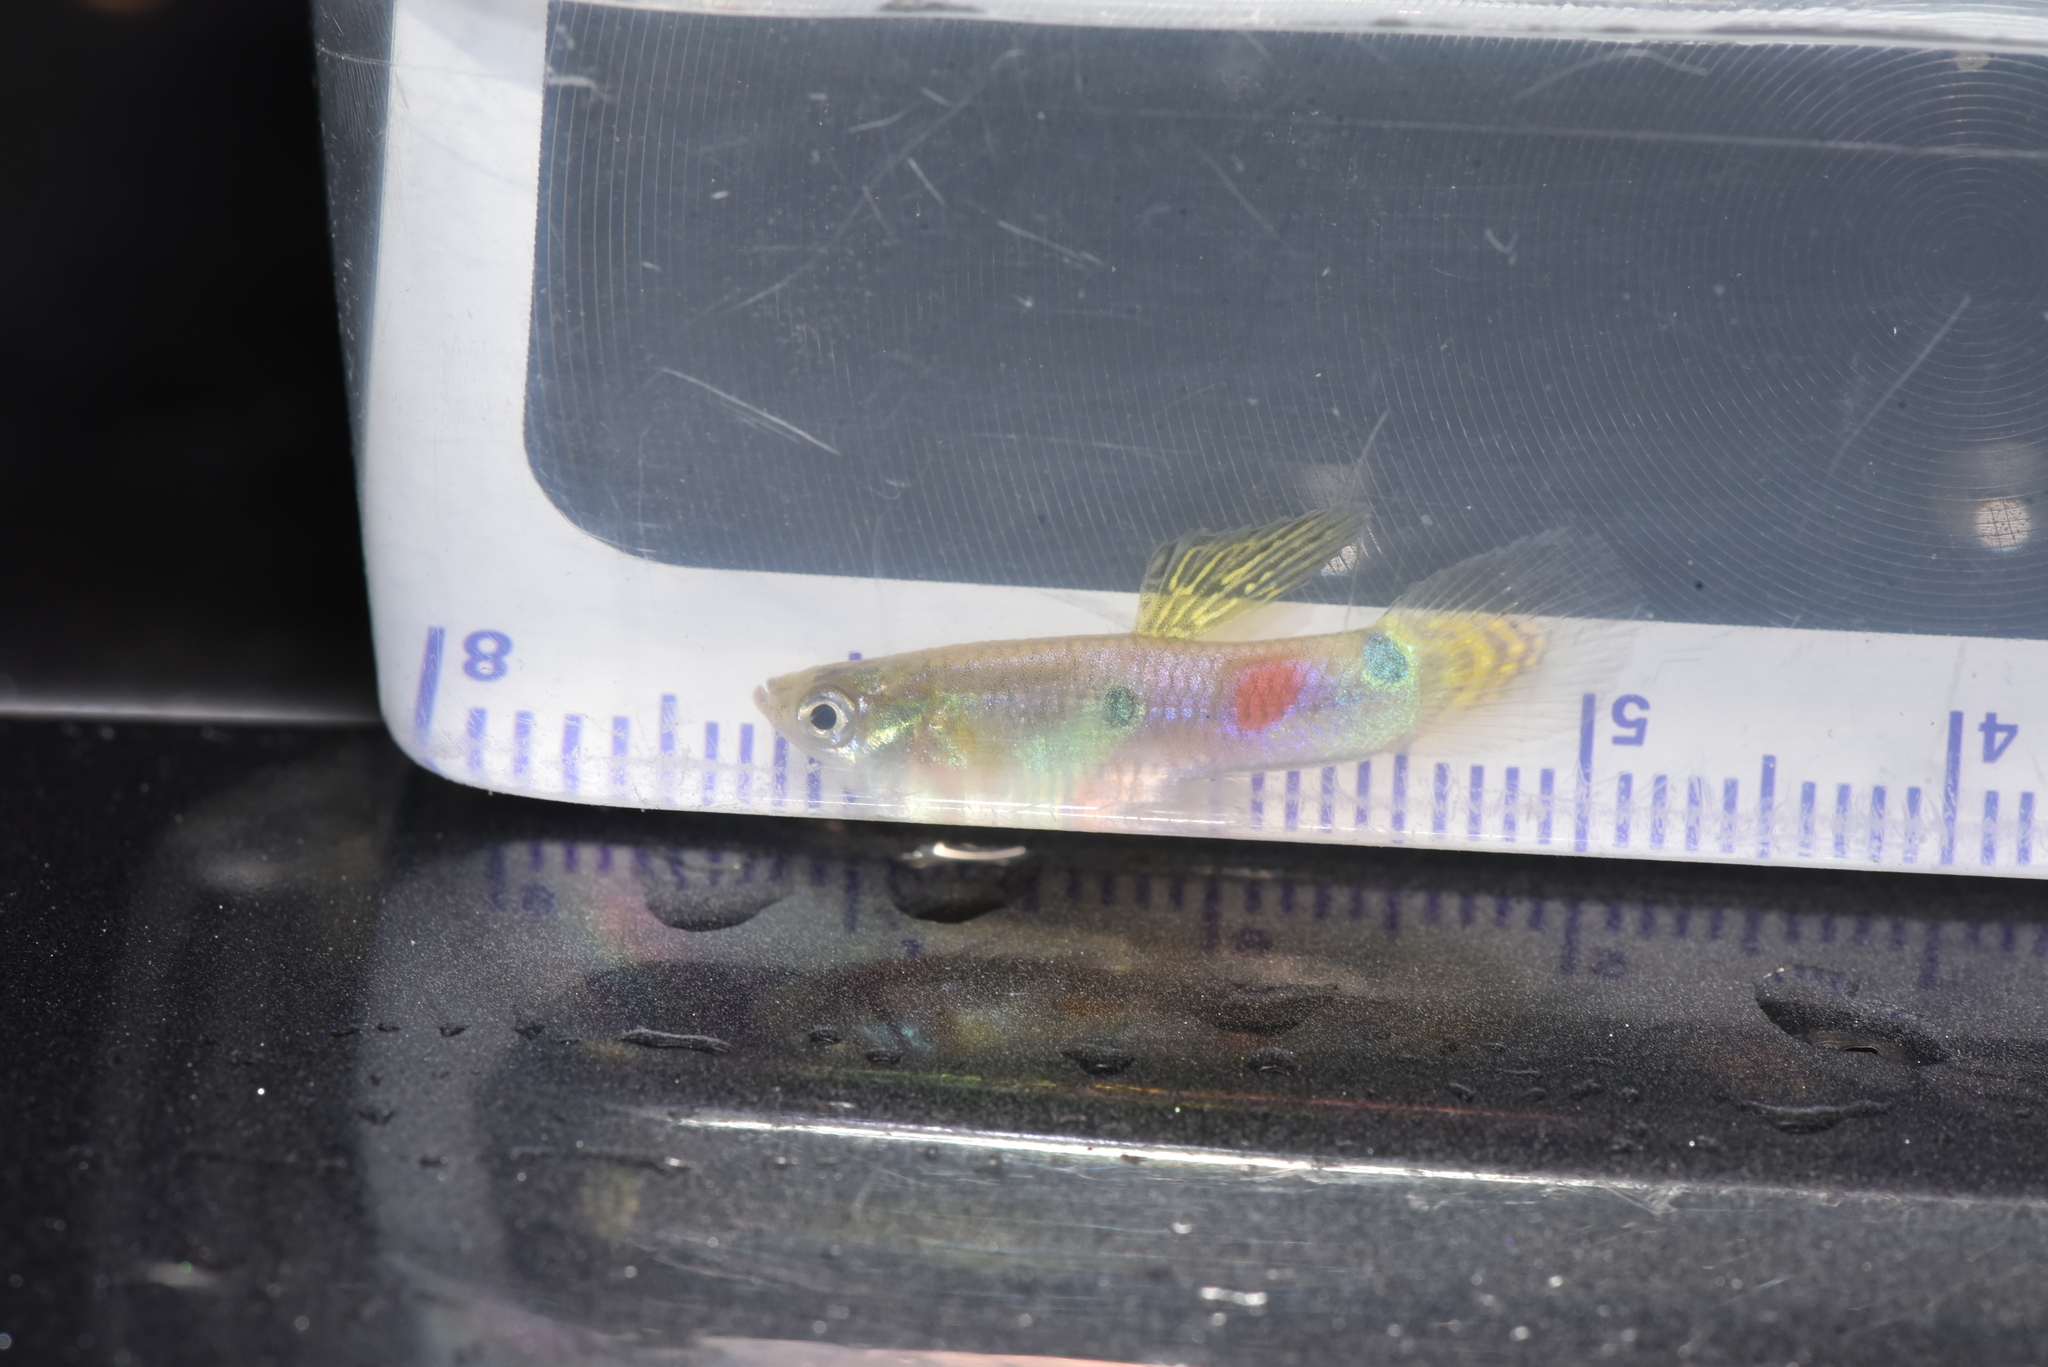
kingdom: Animalia
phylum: Chordata
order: Cyprinodontiformes
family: Poeciliidae
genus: Poecilia
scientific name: Poecilia reticulata
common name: Guppy
